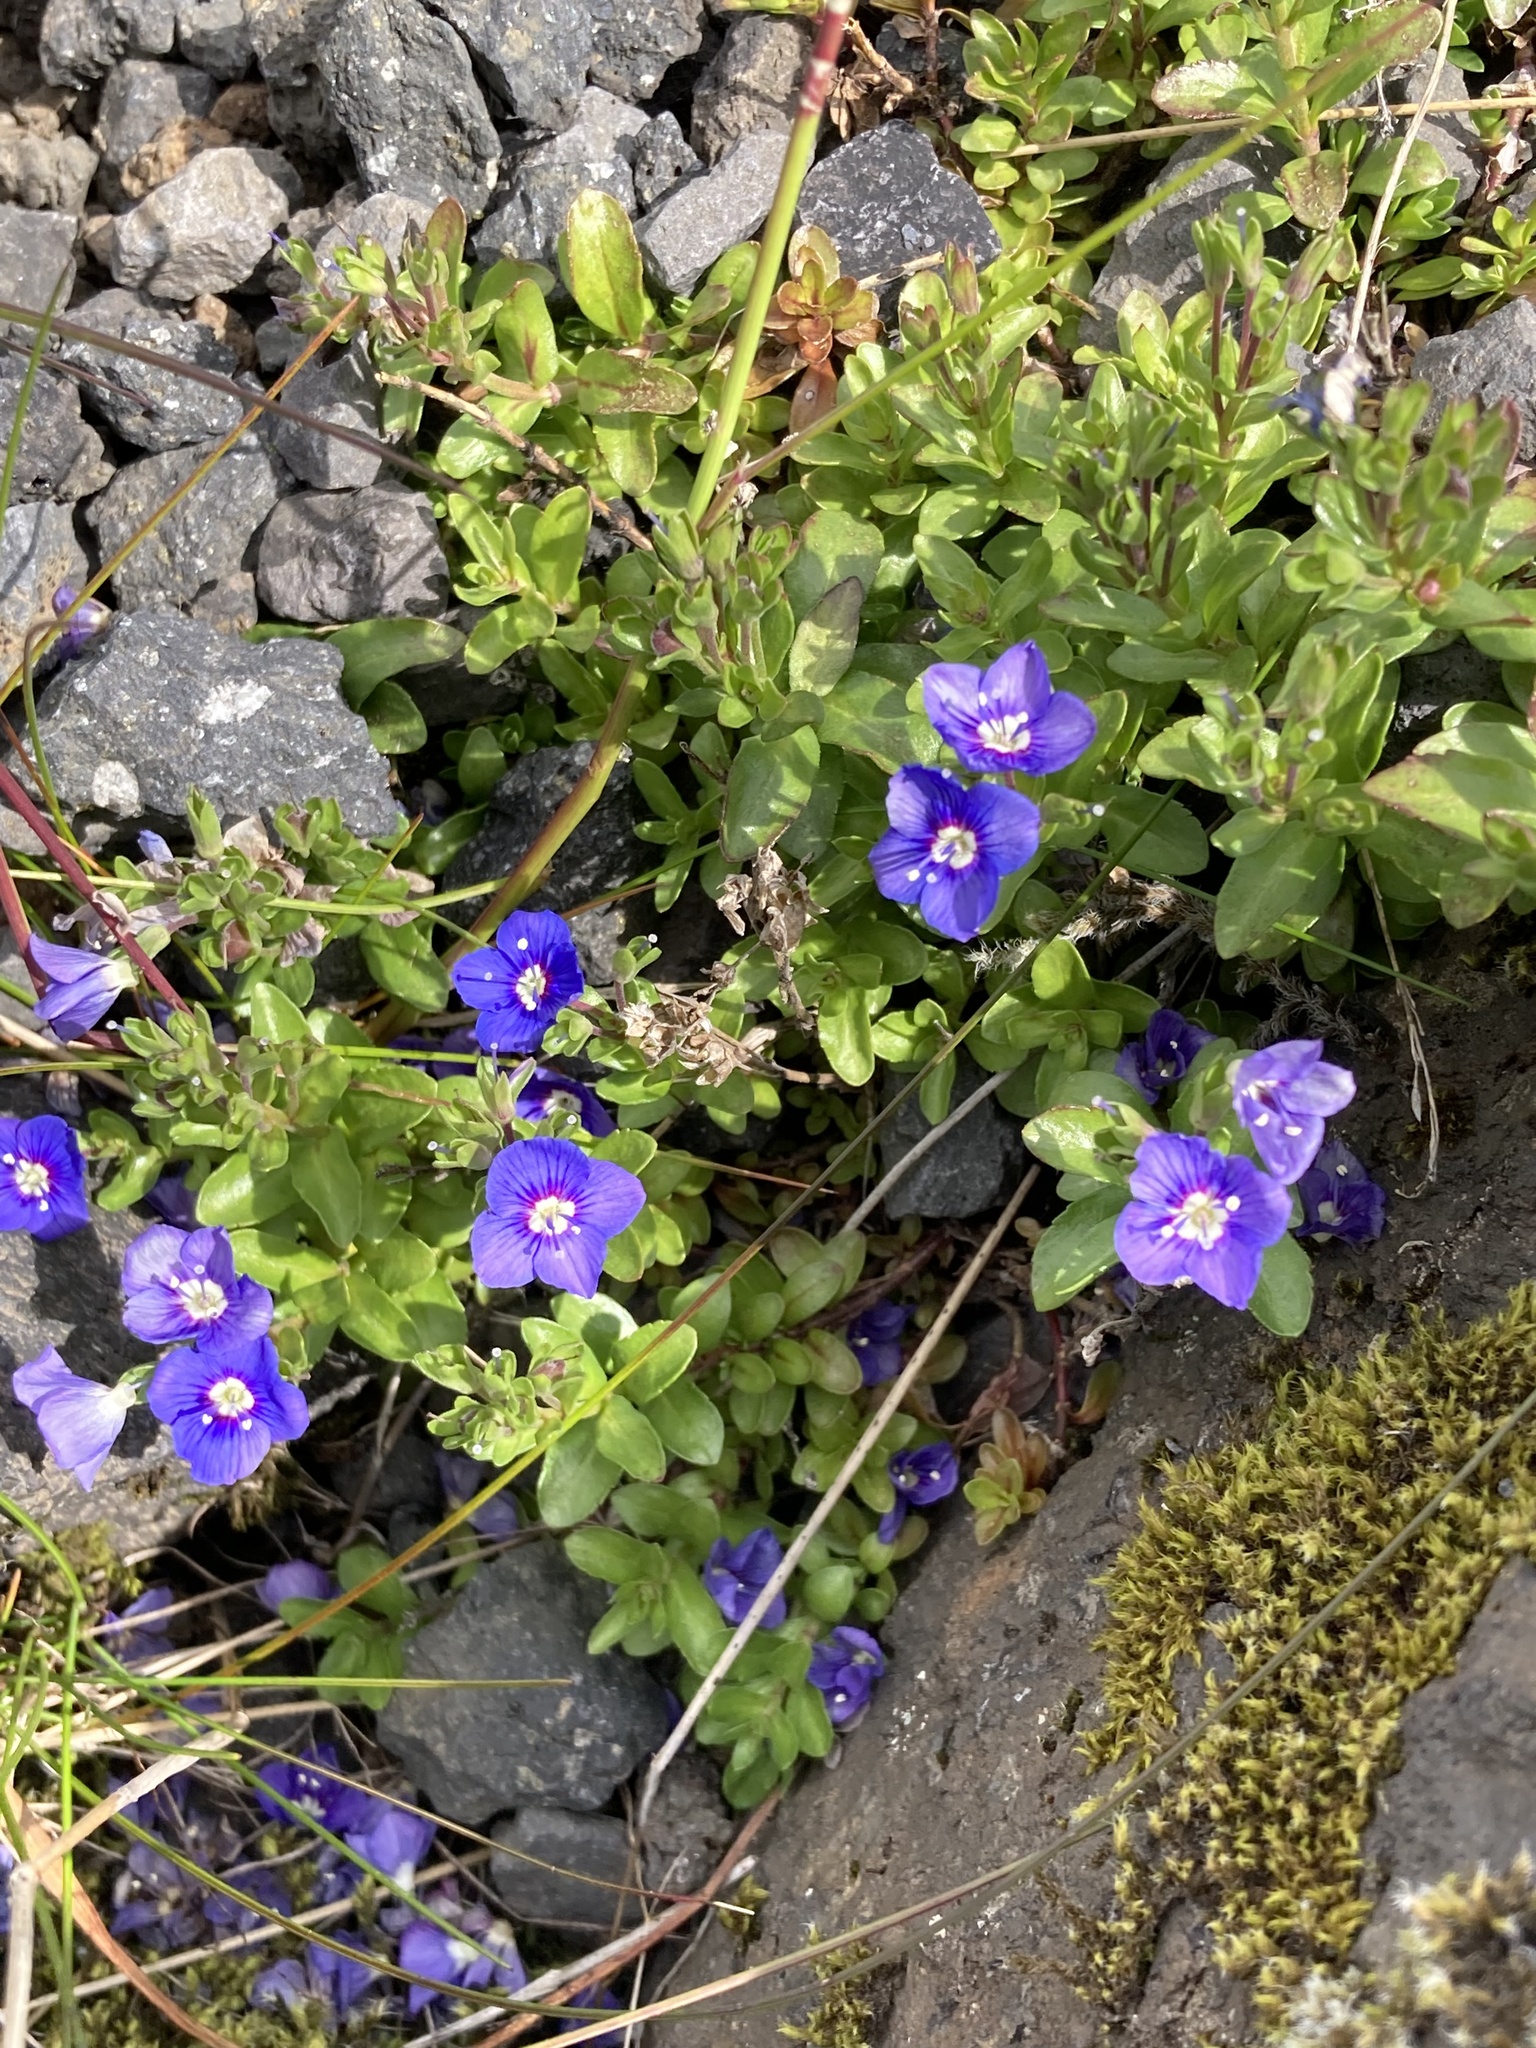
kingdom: Plantae
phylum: Tracheophyta
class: Magnoliopsida
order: Lamiales
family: Plantaginaceae
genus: Veronica
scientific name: Veronica fruticans
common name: Rock speedwell
